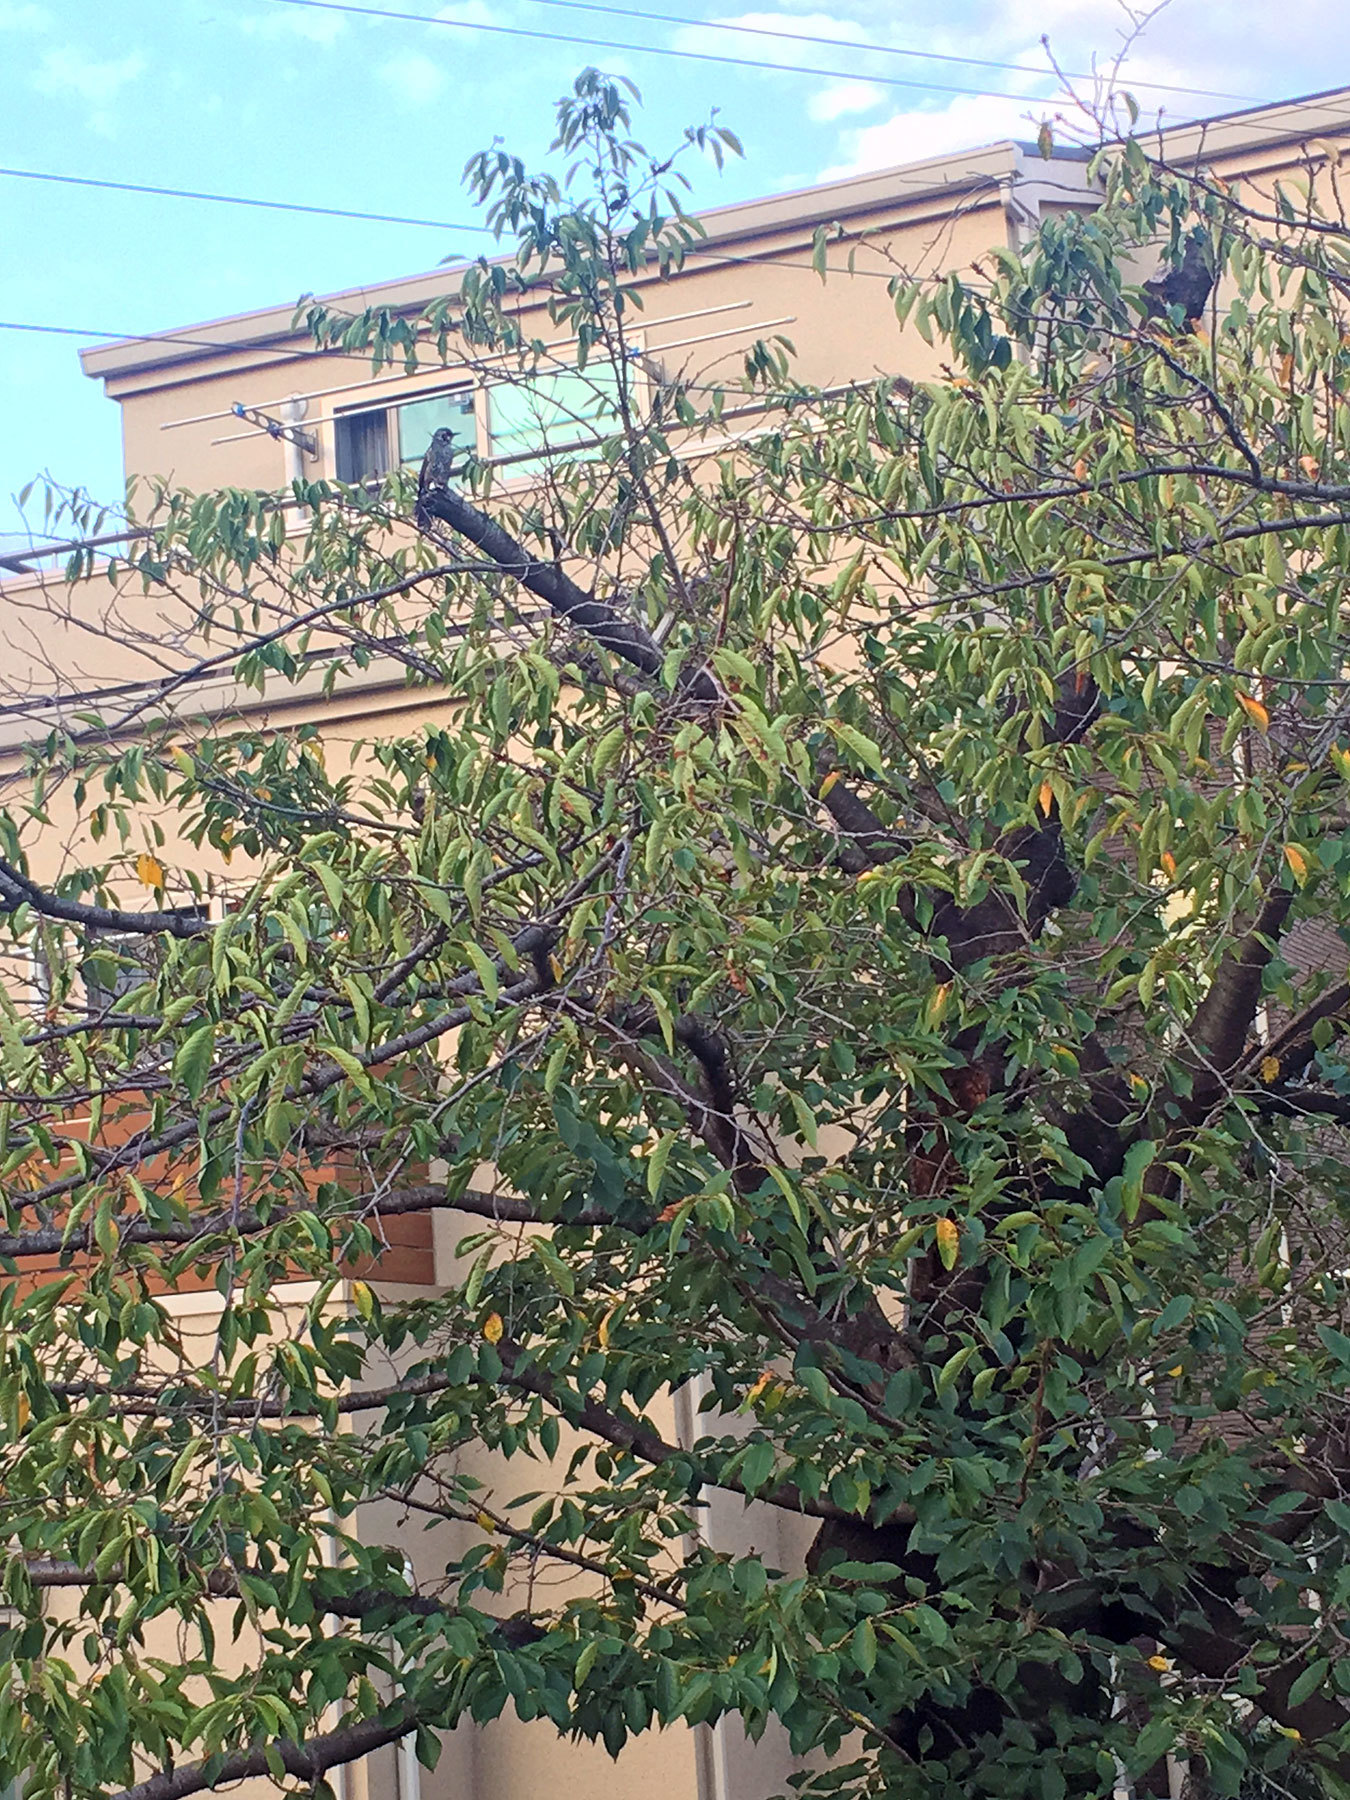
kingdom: Animalia
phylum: Chordata
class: Aves
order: Passeriformes
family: Pycnonotidae
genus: Hypsipetes
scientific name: Hypsipetes amaurotis
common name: Brown-eared bulbul
